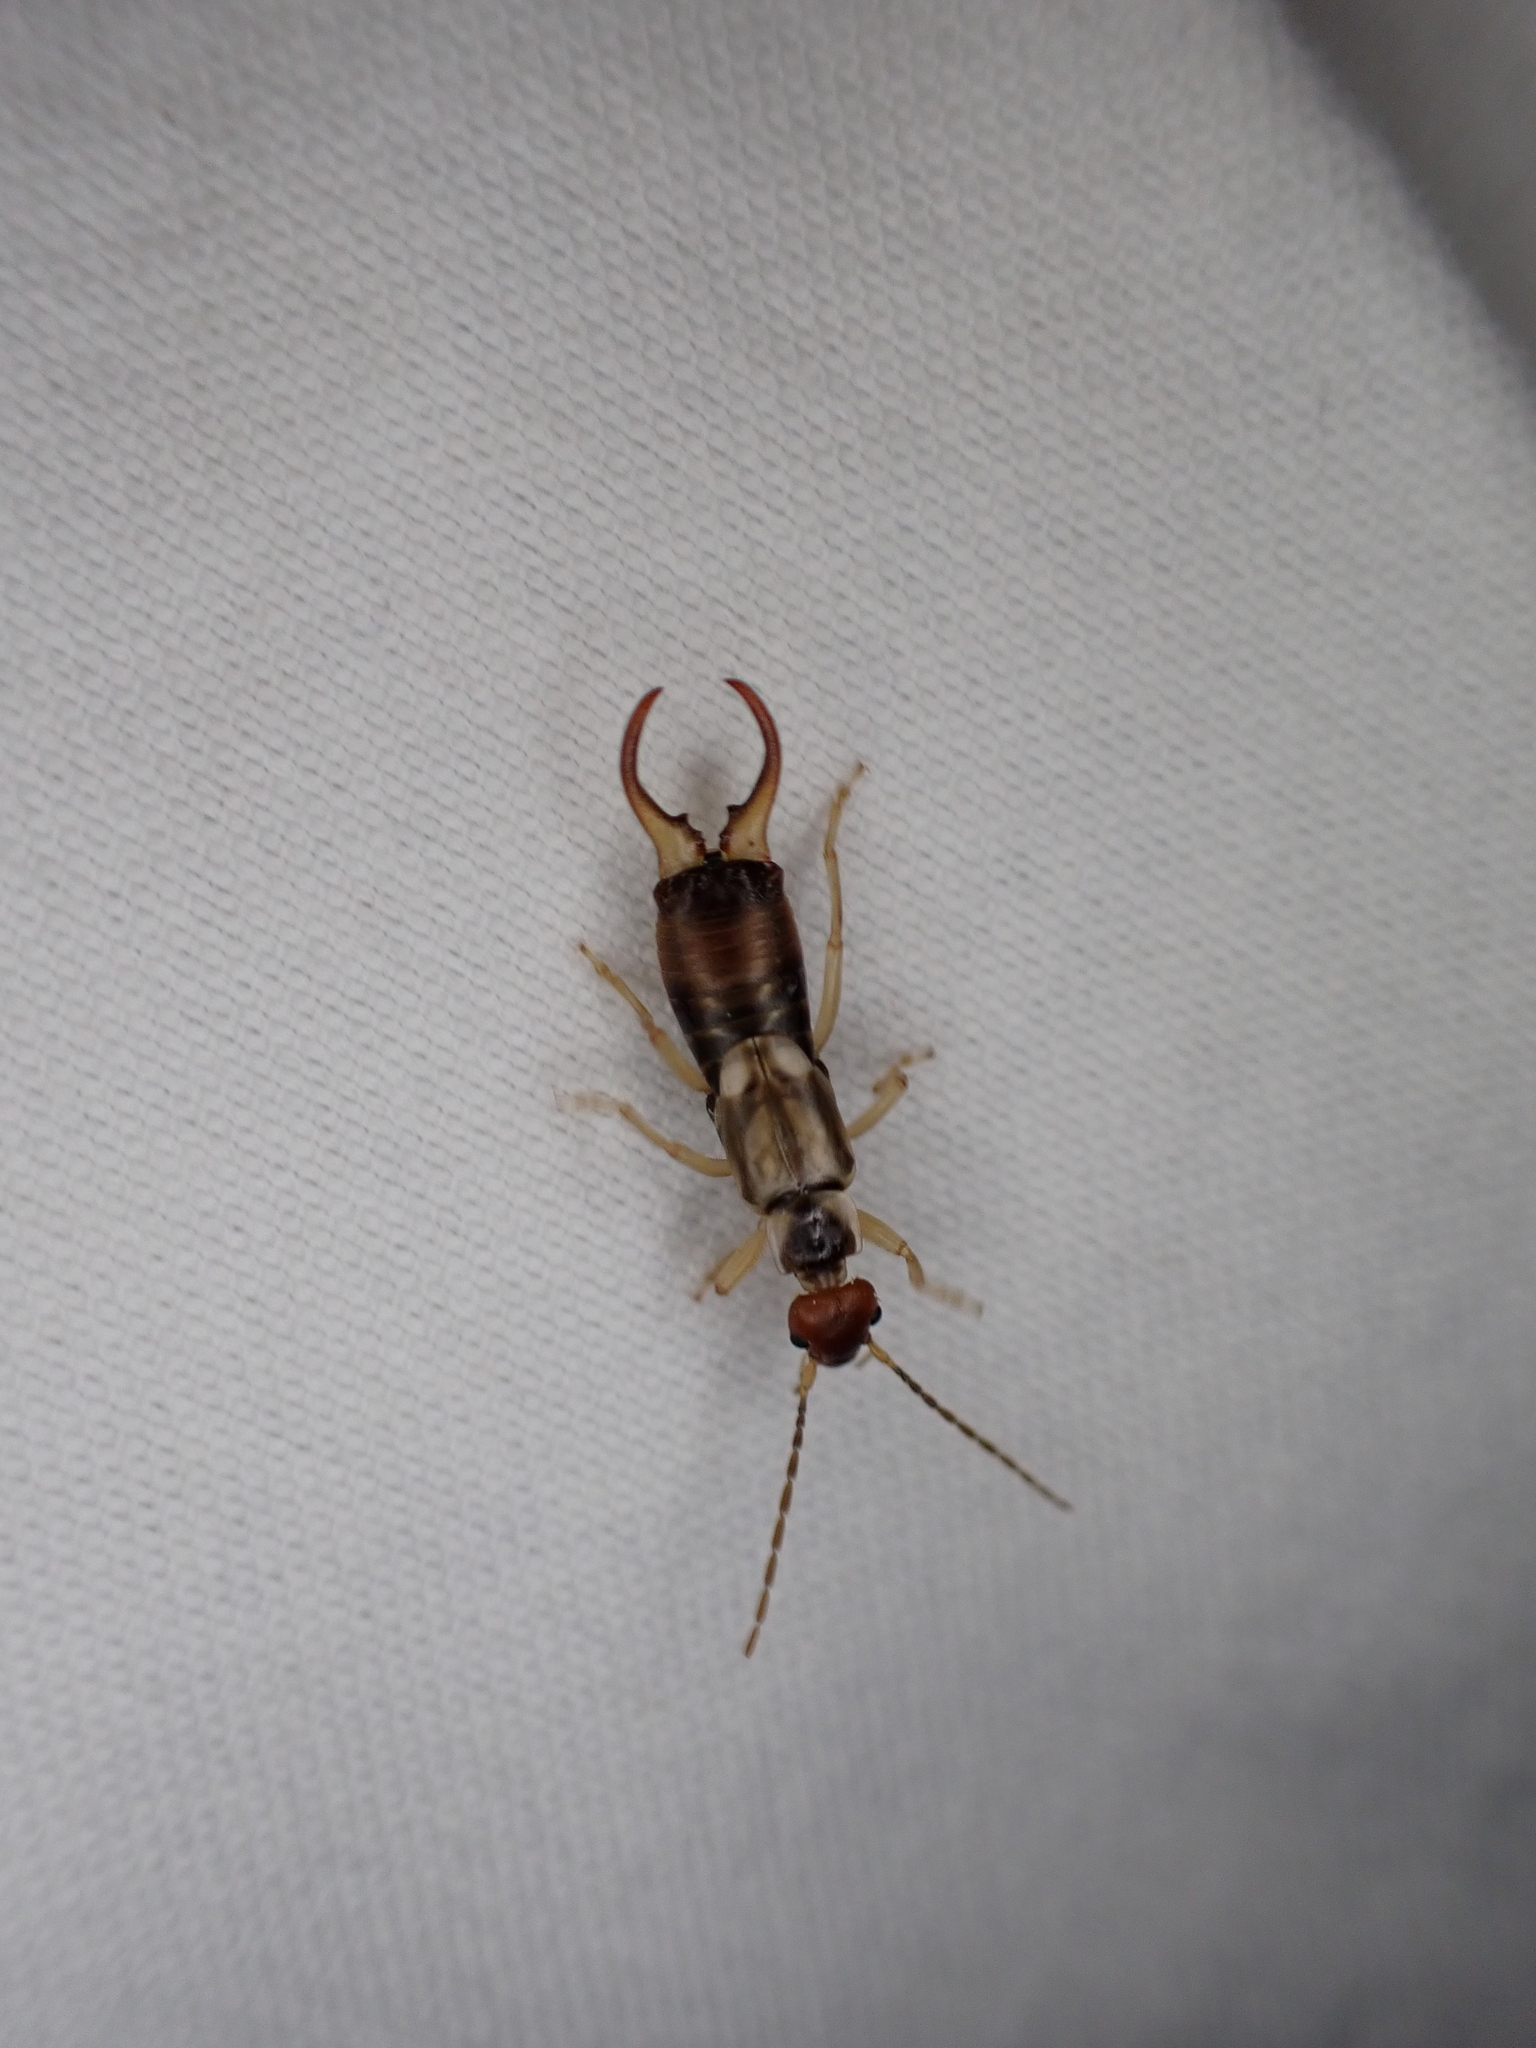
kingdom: Animalia
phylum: Arthropoda
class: Insecta
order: Dermaptera
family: Forficulidae
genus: Forficula
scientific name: Forficula dentata
